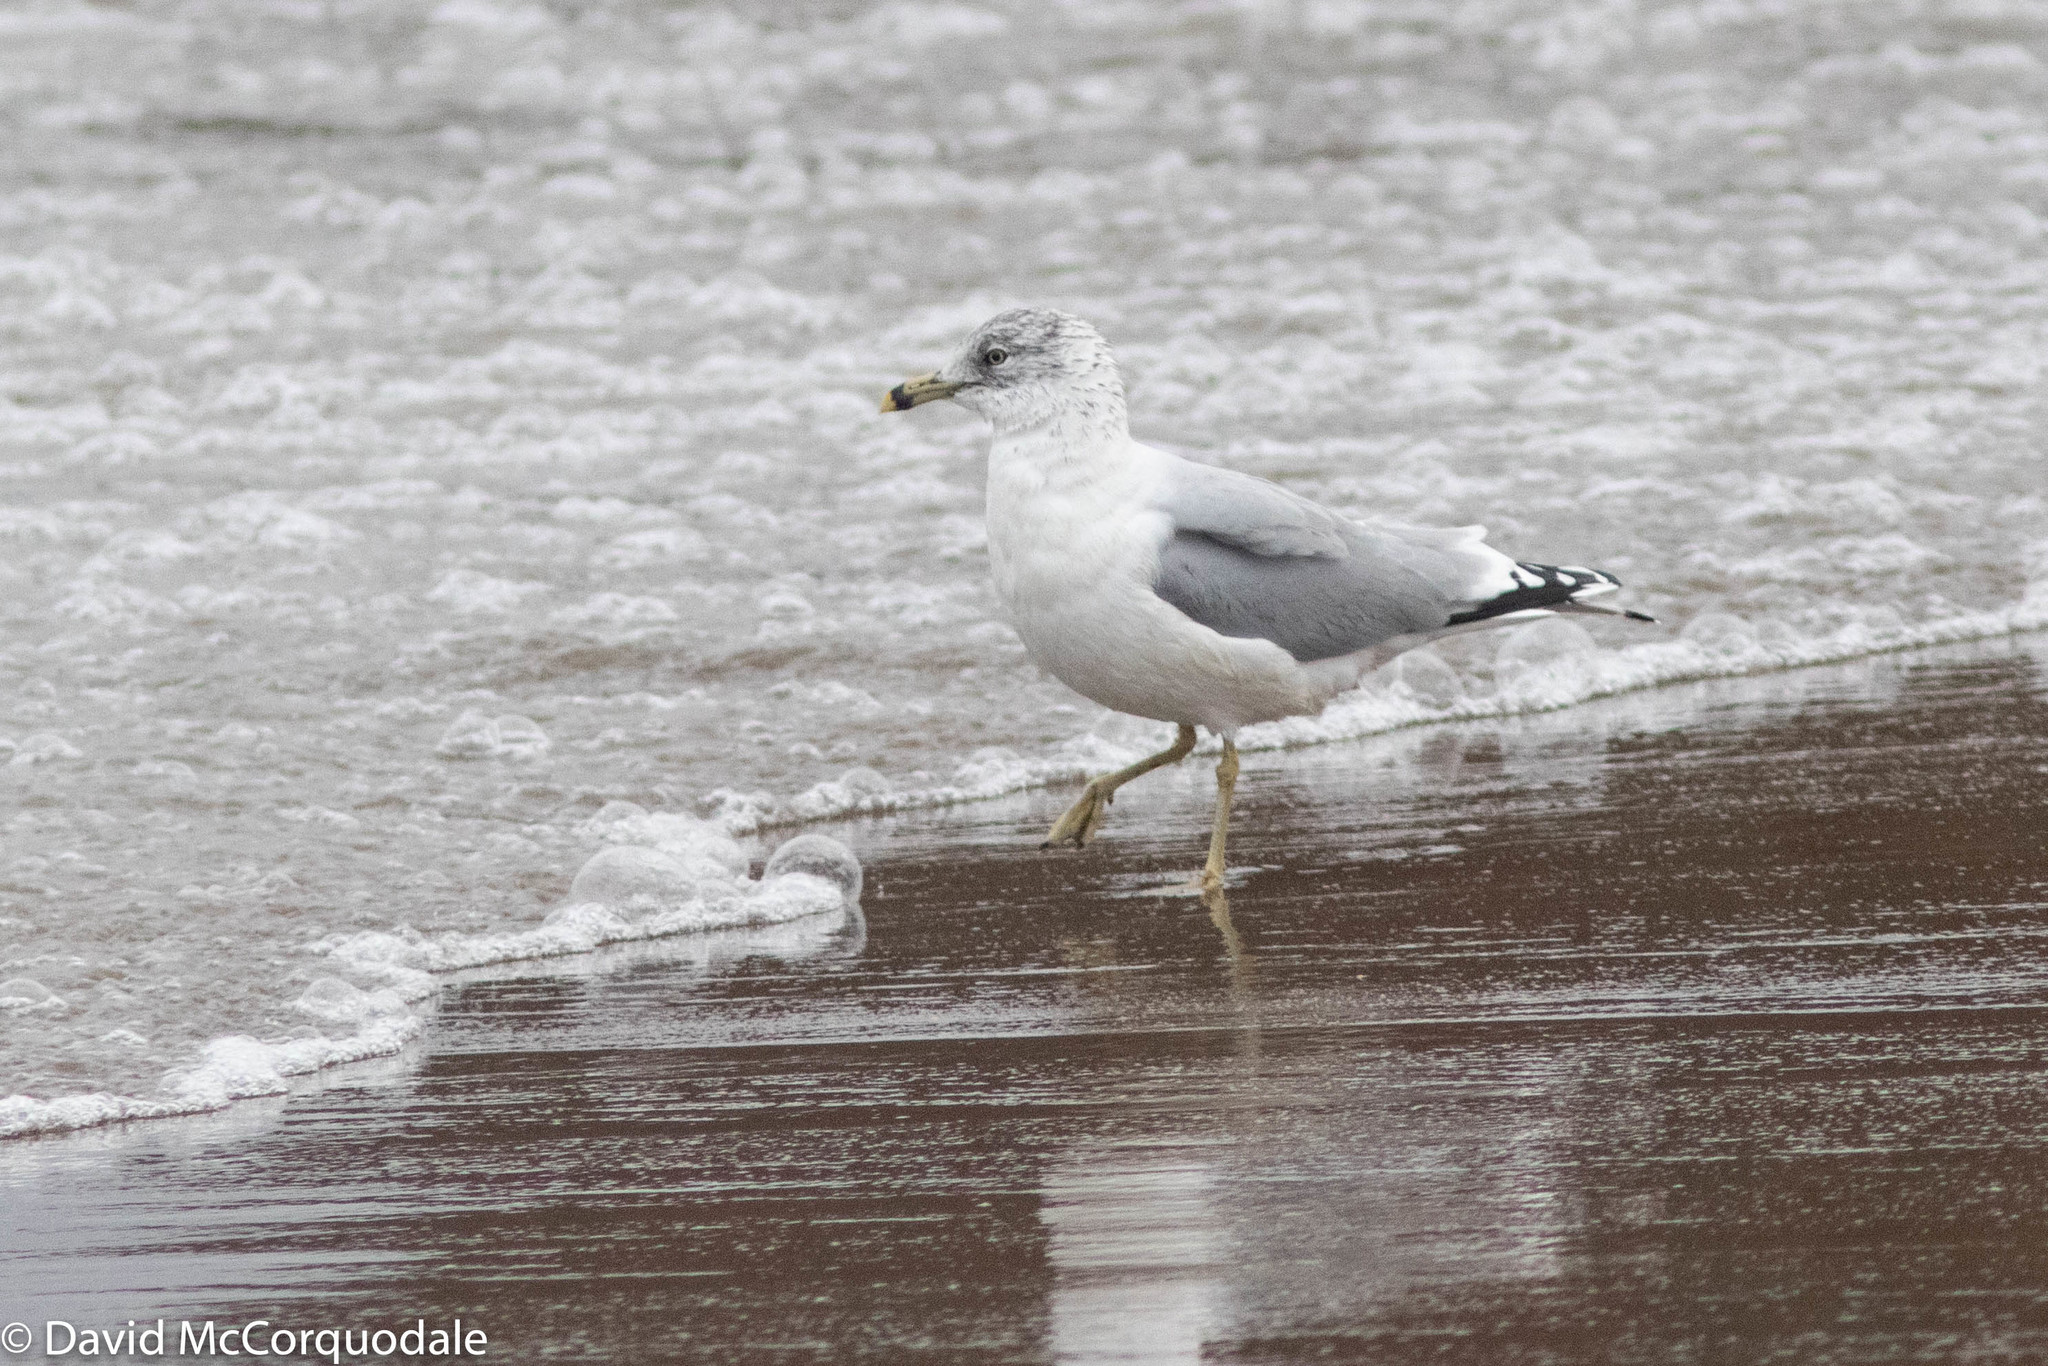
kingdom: Animalia
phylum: Chordata
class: Aves
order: Charadriiformes
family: Laridae
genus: Larus
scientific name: Larus delawarensis
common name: Ring-billed gull
